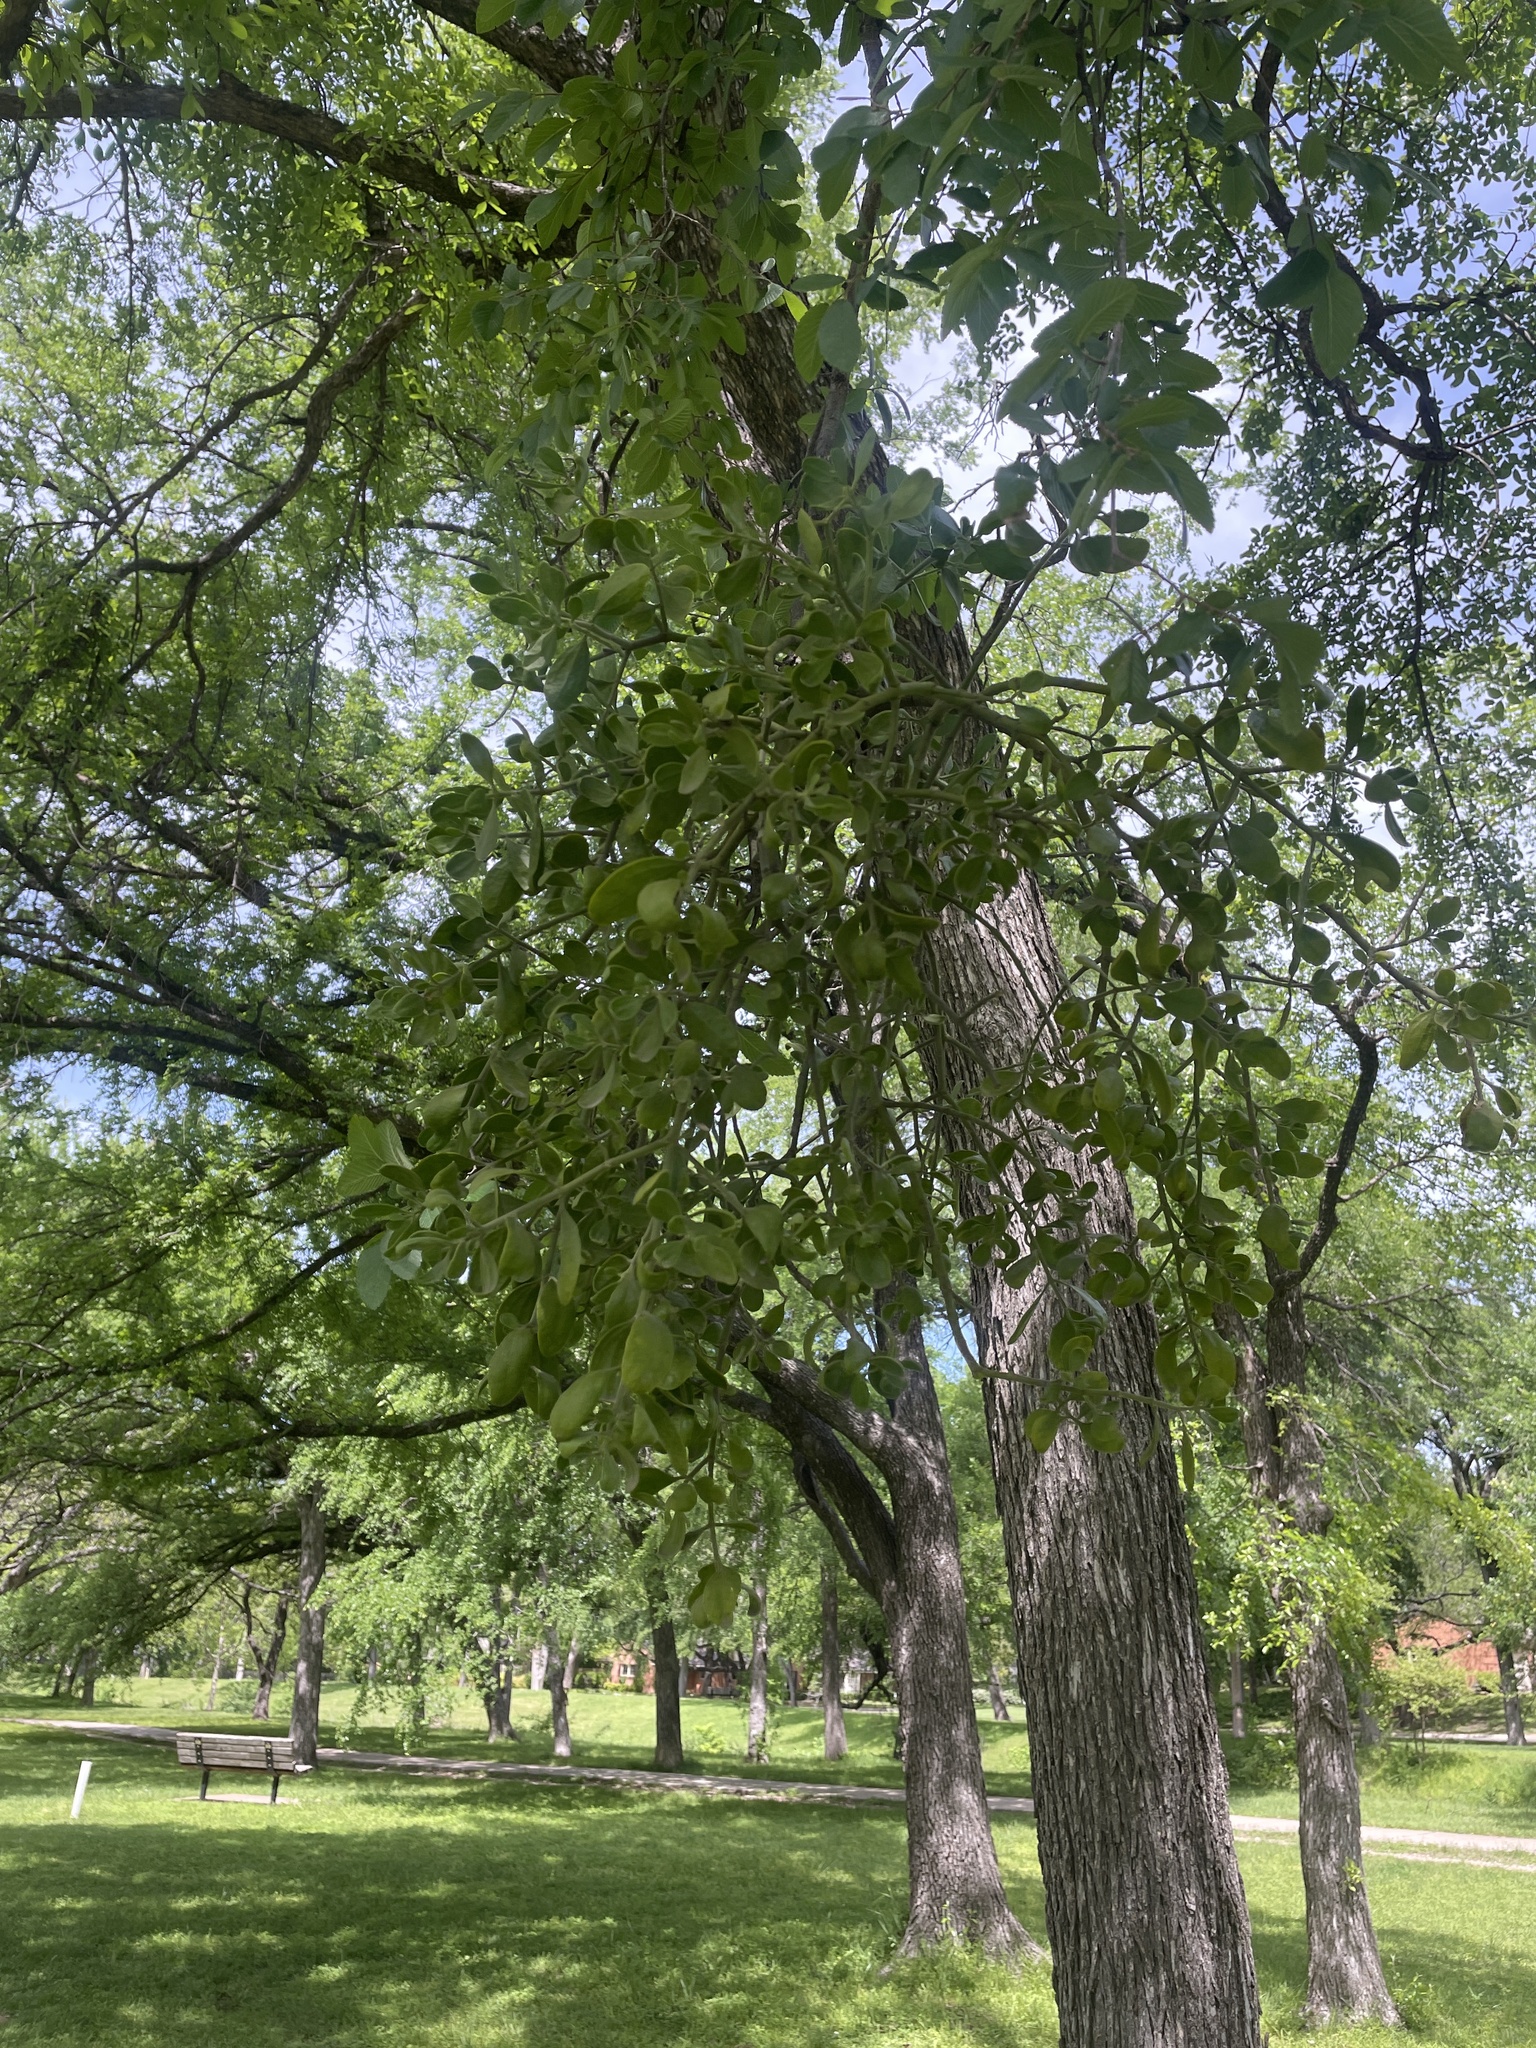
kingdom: Plantae
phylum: Tracheophyta
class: Magnoliopsida
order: Santalales
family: Viscaceae
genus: Phoradendron
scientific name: Phoradendron leucarpum
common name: Pacific mistletoe
